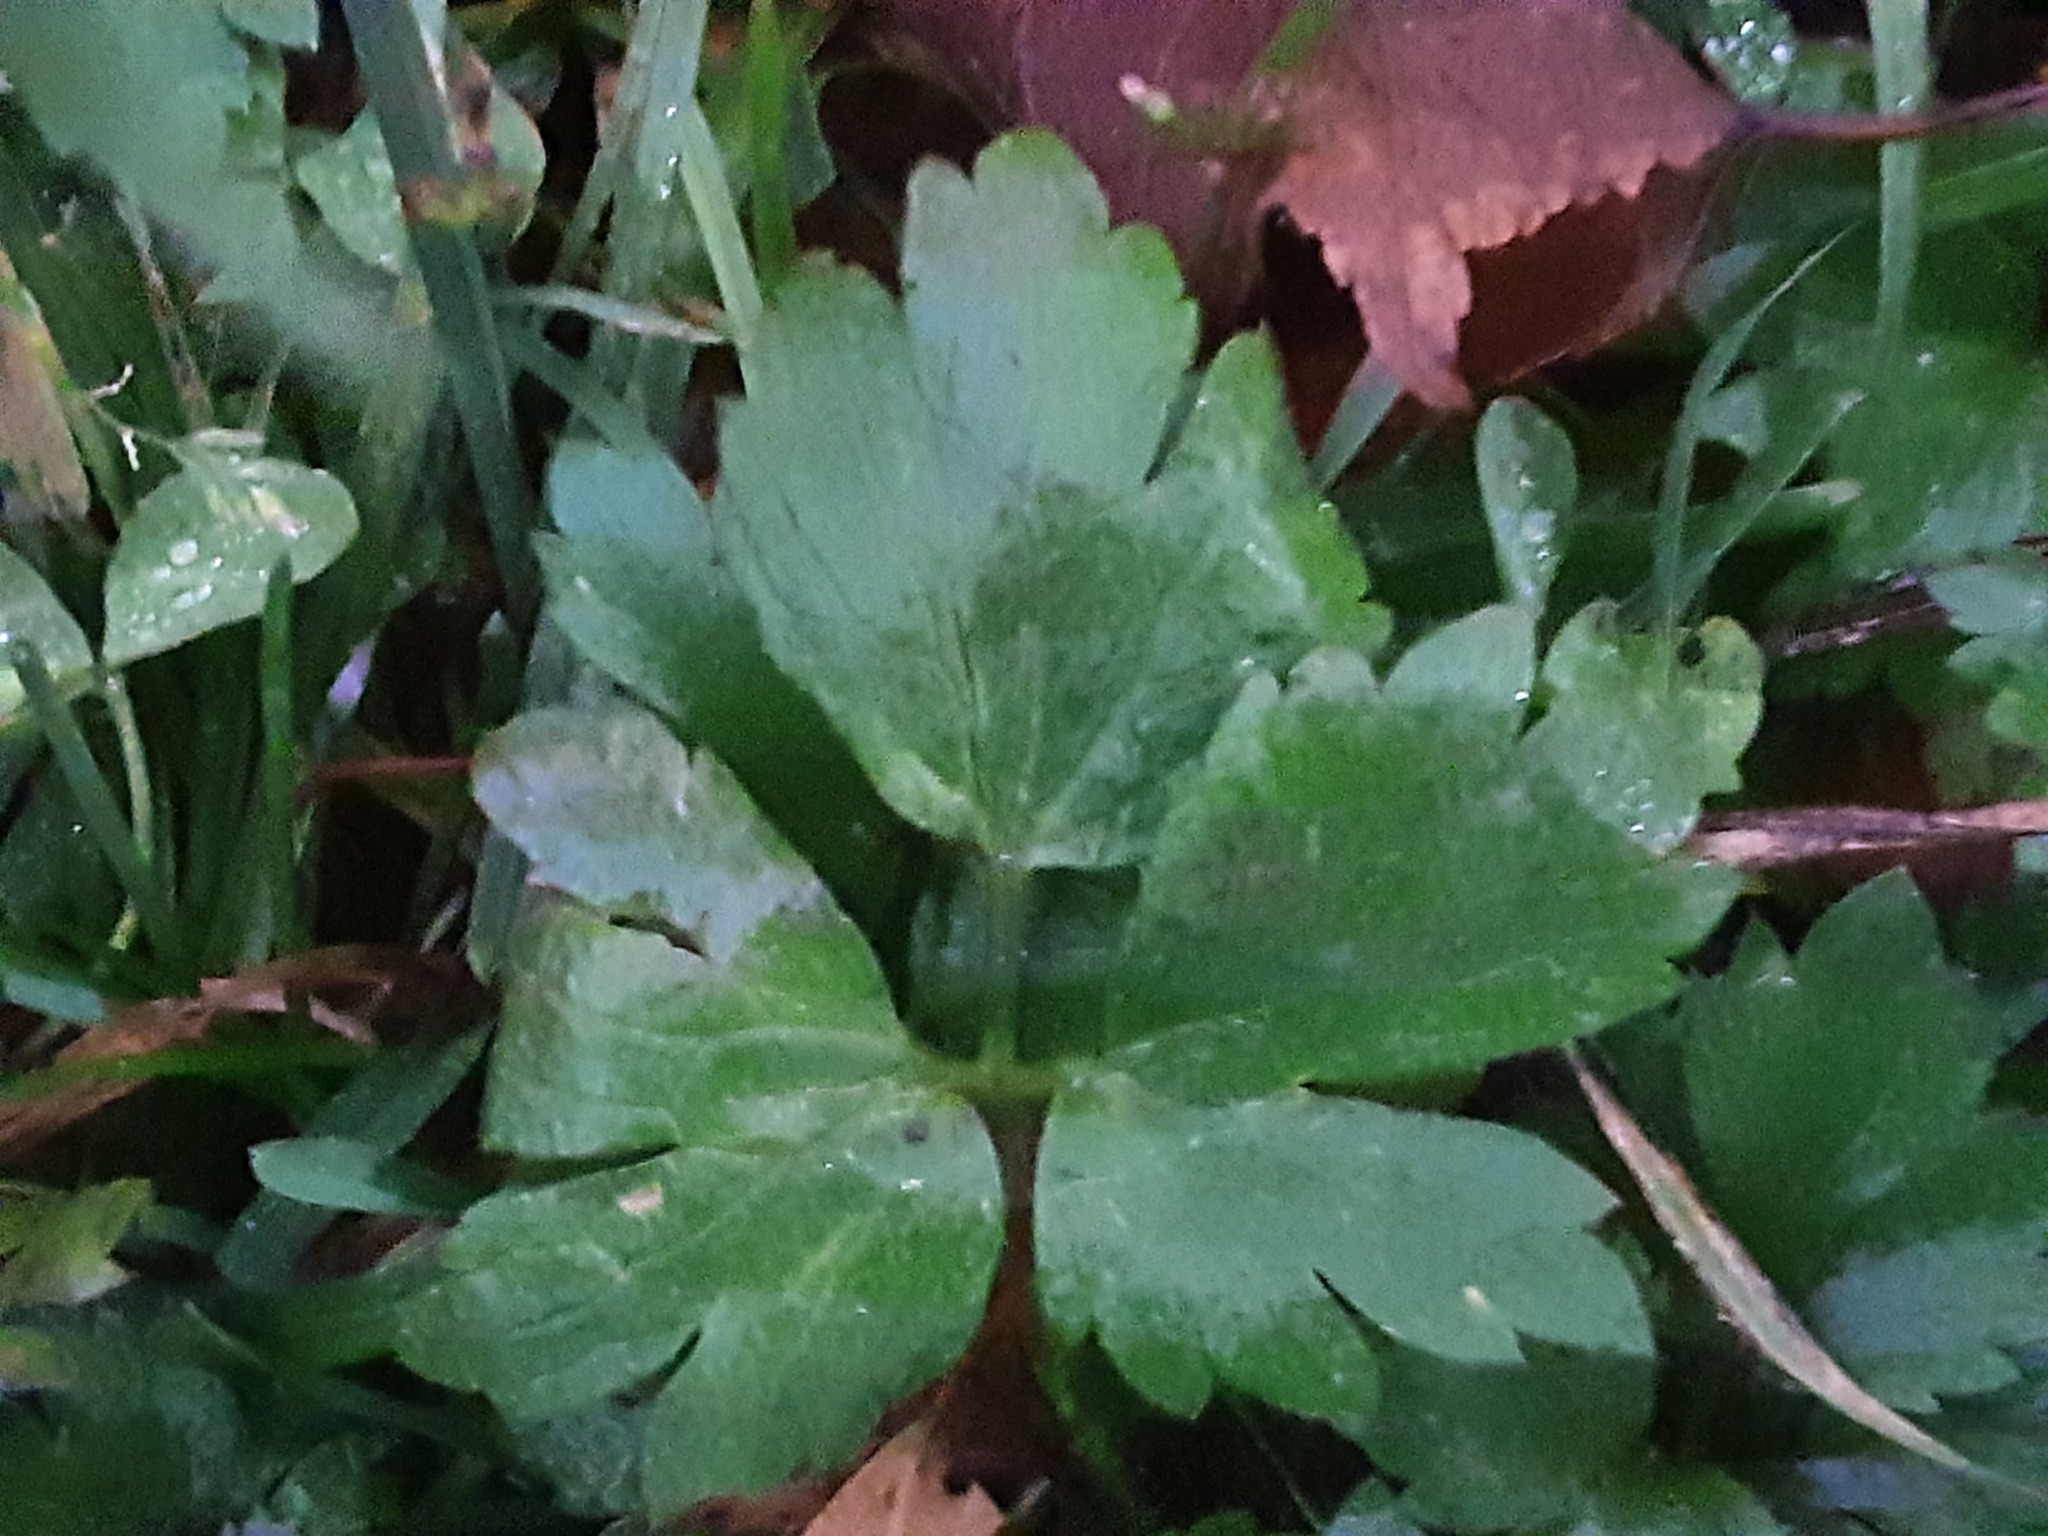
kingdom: Plantae
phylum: Tracheophyta
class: Magnoliopsida
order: Ranunculales
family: Ranunculaceae
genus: Ranunculus
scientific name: Ranunculus repens
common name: Creeping buttercup
